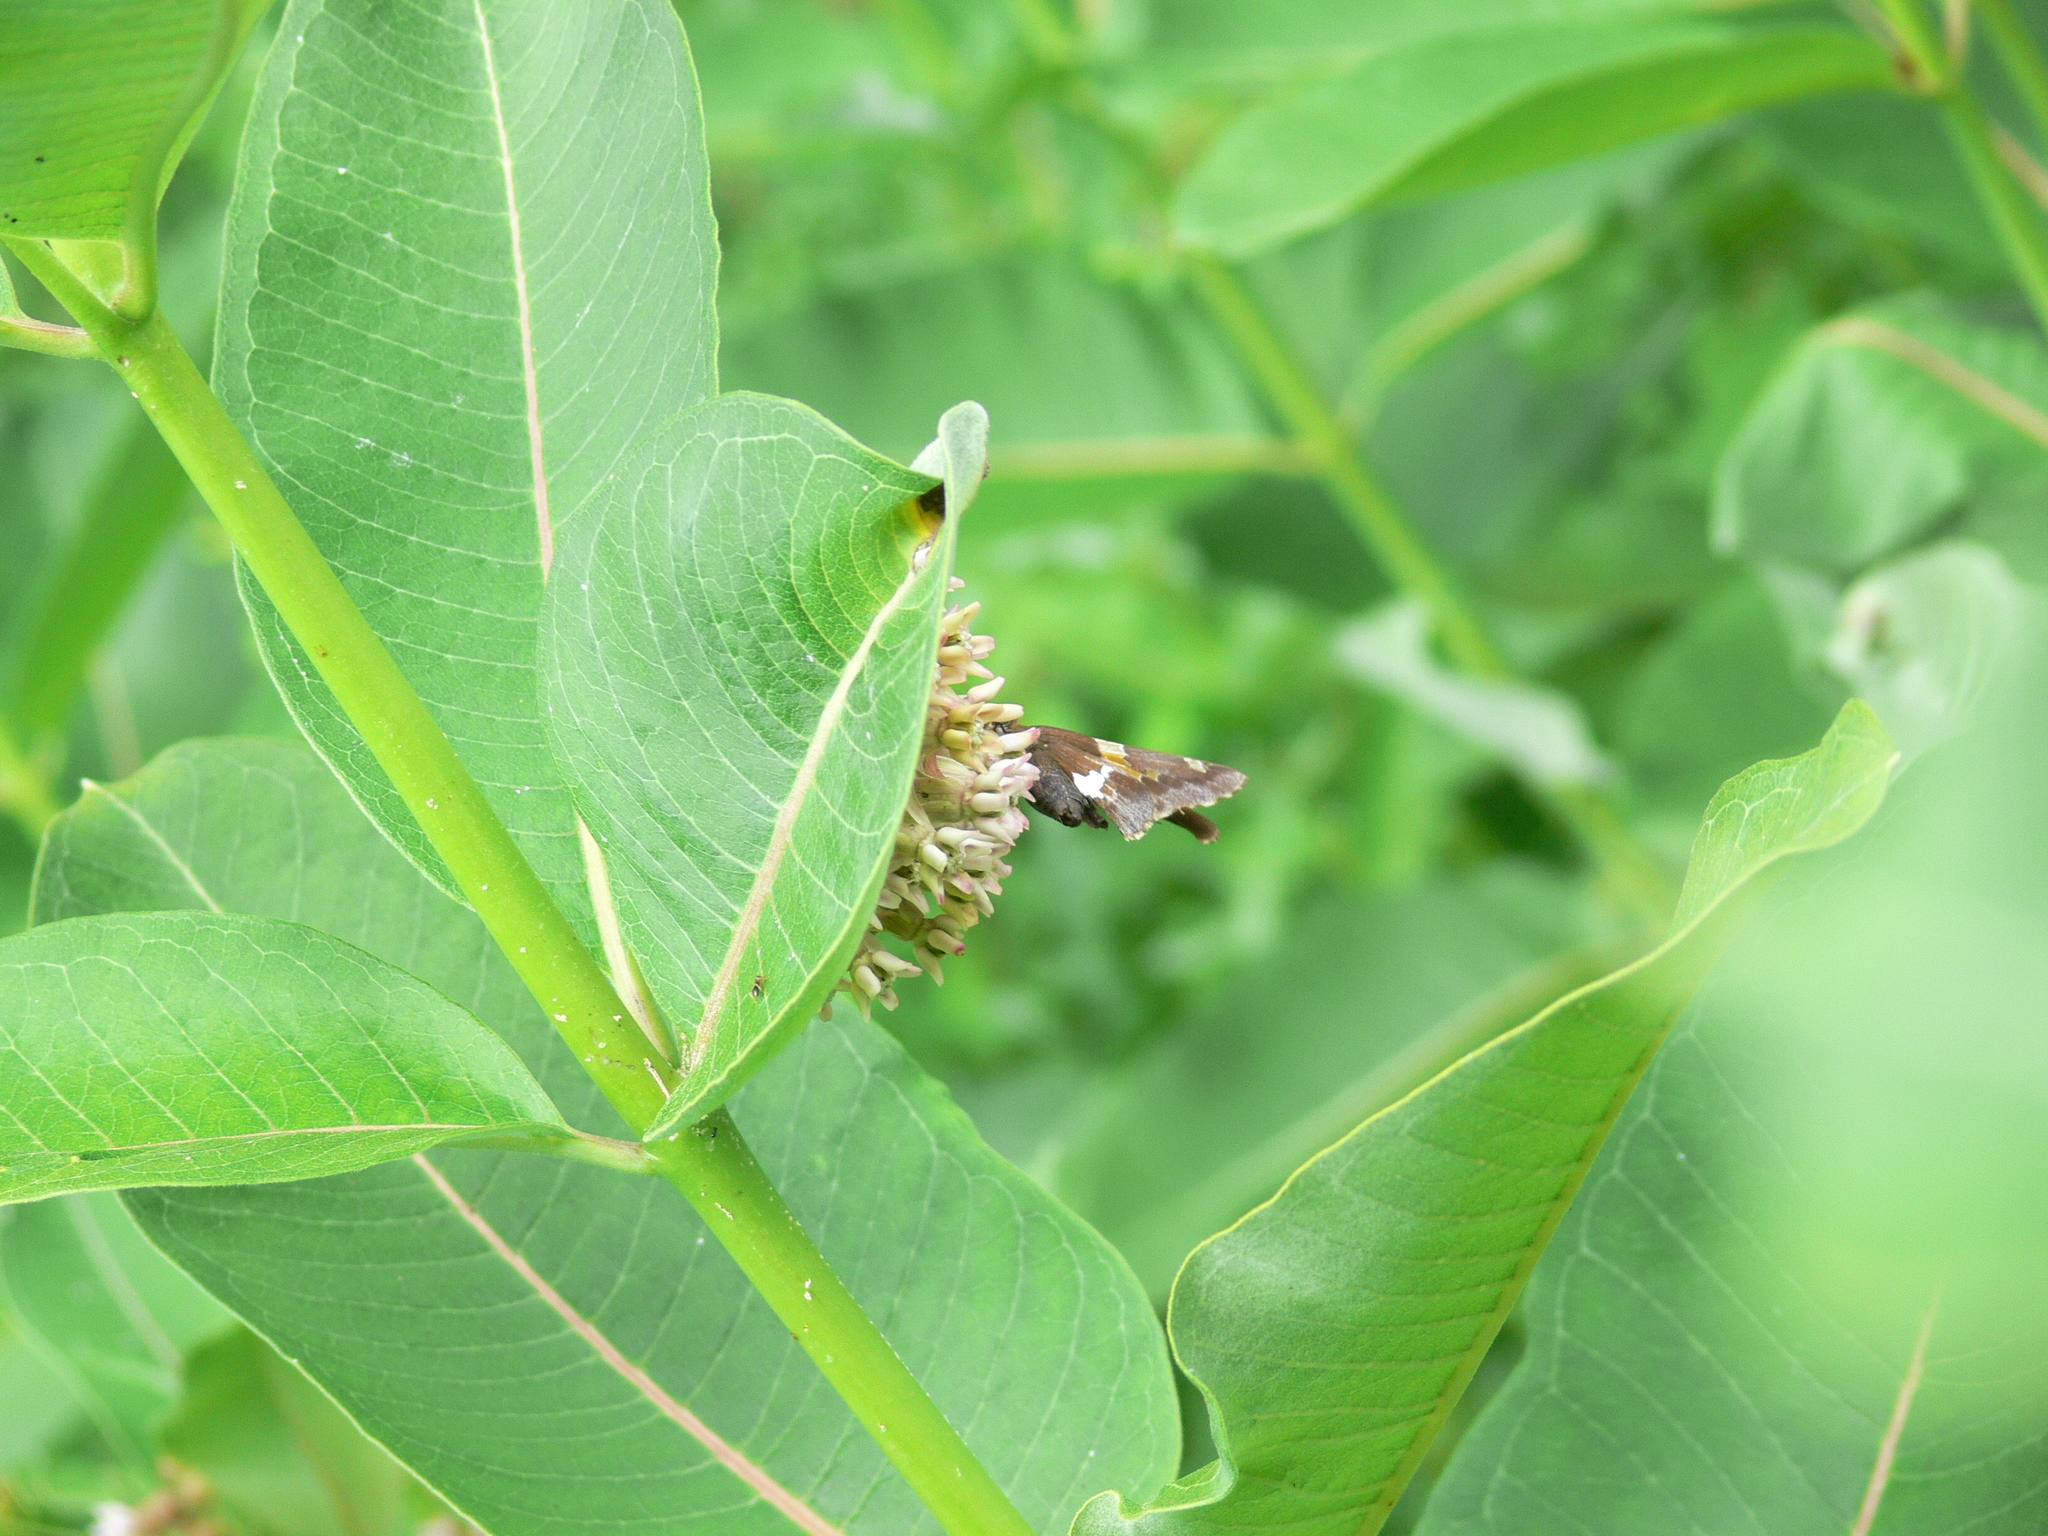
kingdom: Animalia
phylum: Arthropoda
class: Insecta
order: Lepidoptera
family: Hesperiidae
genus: Epargyreus
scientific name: Epargyreus clarus
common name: Silver-spotted skipper
